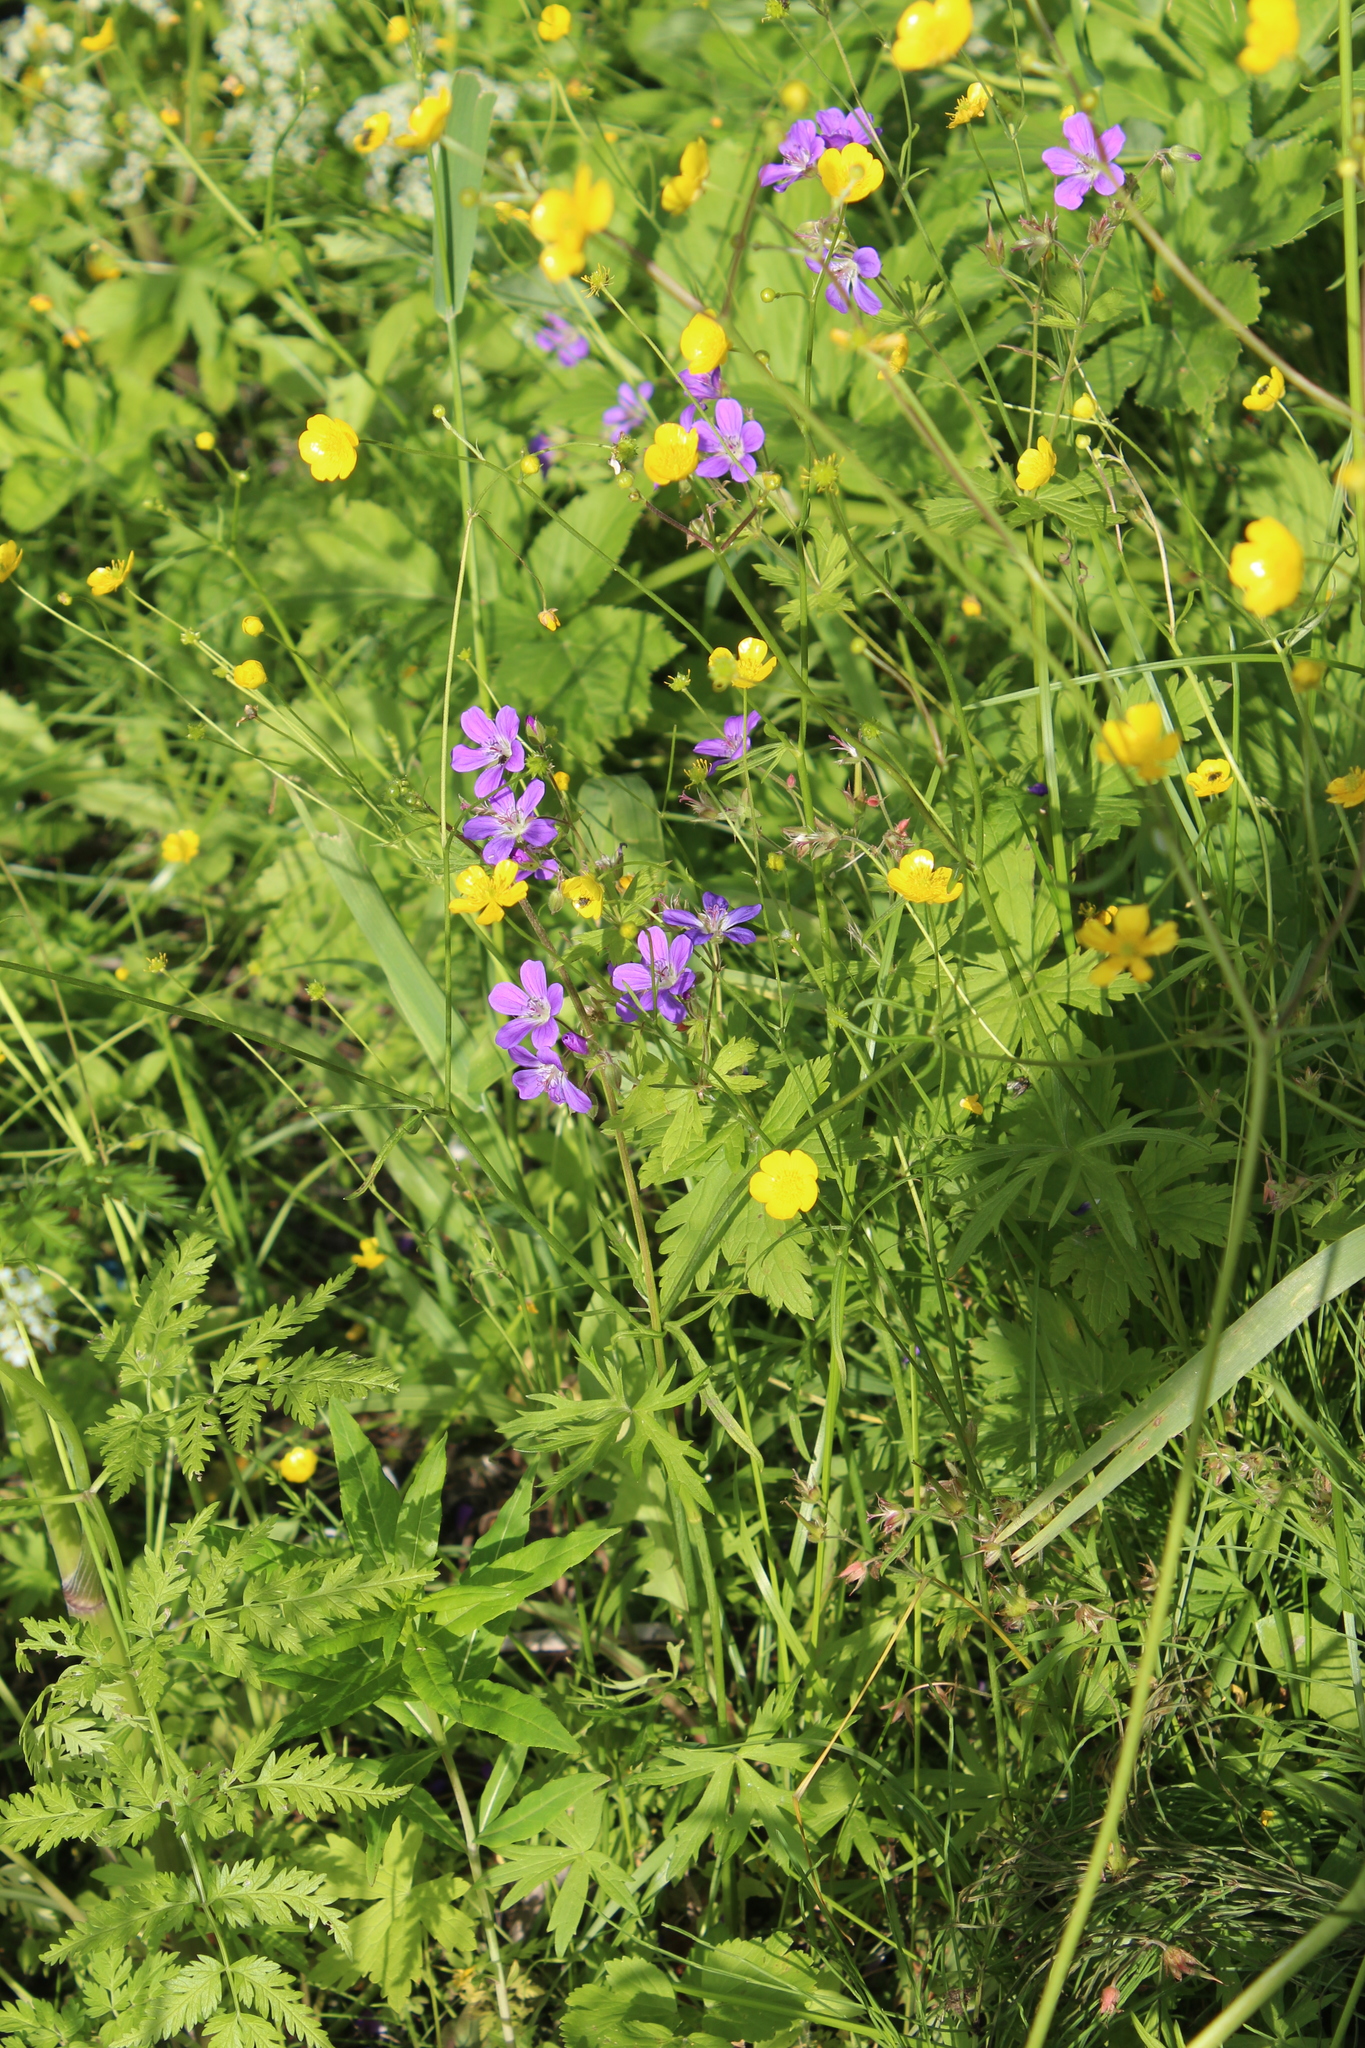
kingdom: Plantae
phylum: Tracheophyta
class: Magnoliopsida
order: Geraniales
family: Geraniaceae
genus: Geranium
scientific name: Geranium sylvaticum
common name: Wood crane's-bill
